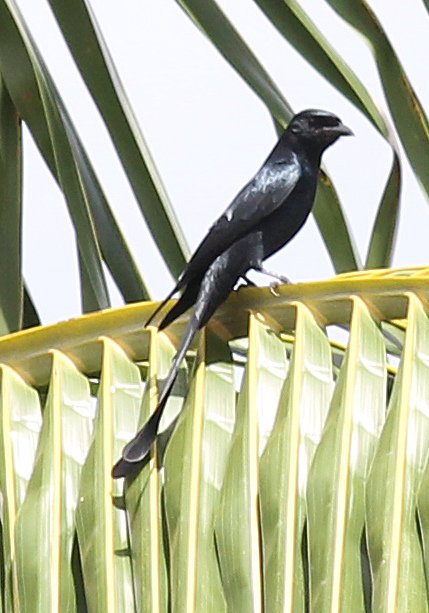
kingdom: Animalia
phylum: Chordata
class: Aves
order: Passeriformes
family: Dicruridae
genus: Dicrurus
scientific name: Dicrurus macrocercus
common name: Black drongo
